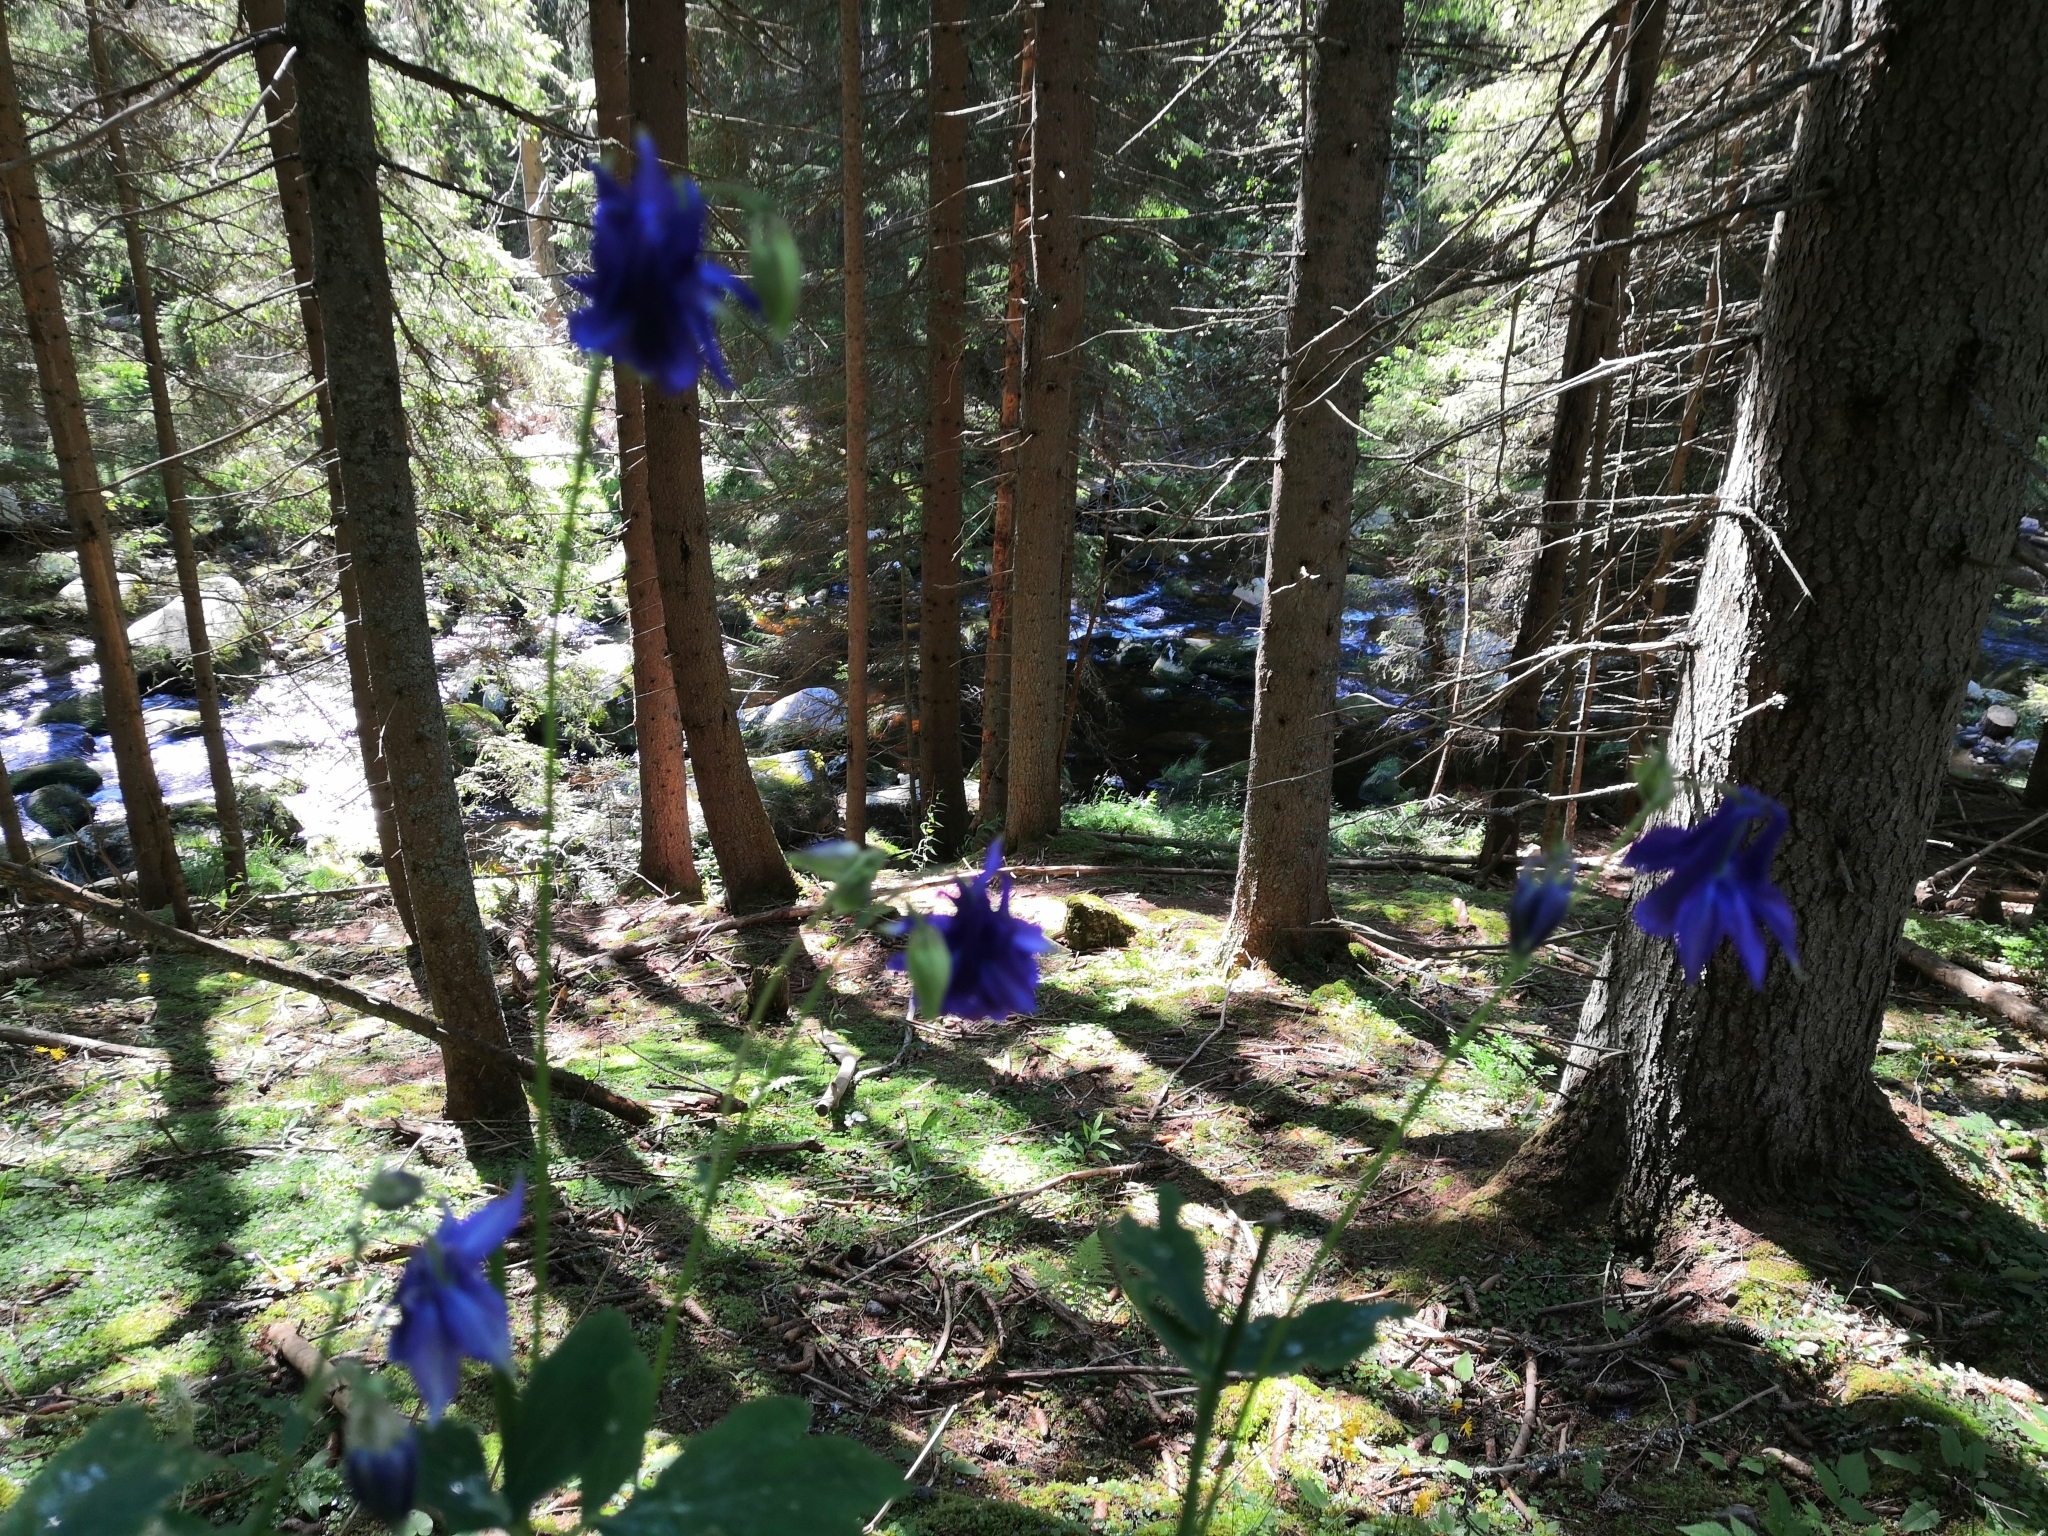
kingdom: Plantae
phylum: Tracheophyta
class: Magnoliopsida
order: Ranunculales
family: Ranunculaceae
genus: Aquilegia
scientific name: Aquilegia vulgaris
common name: Columbine
